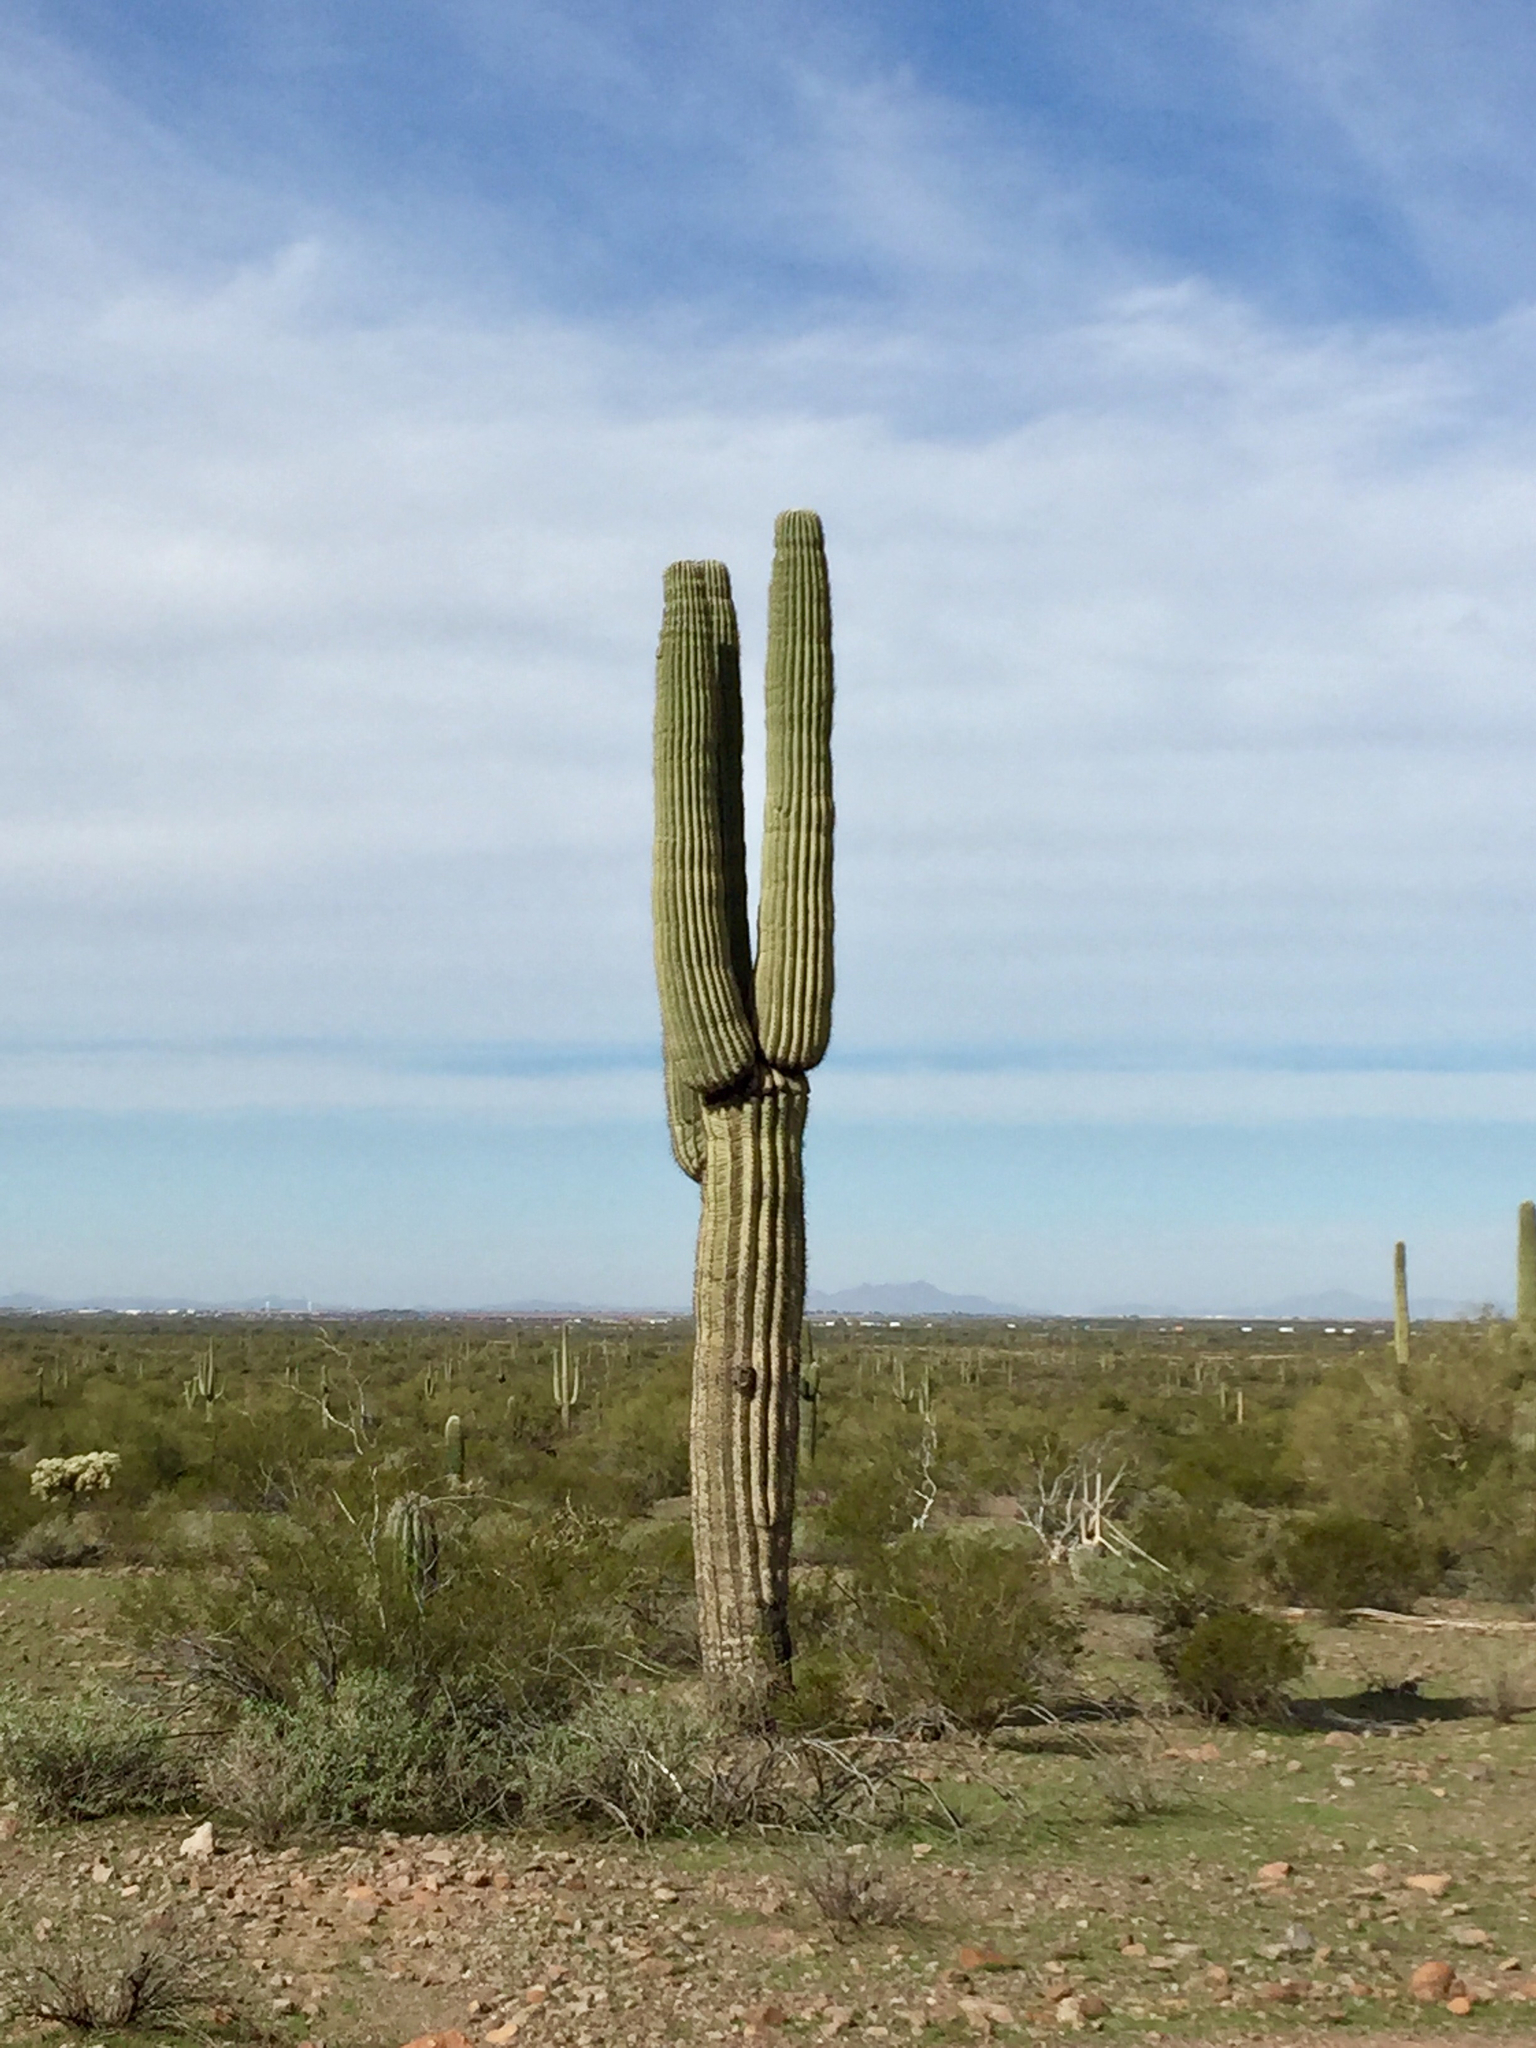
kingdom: Plantae
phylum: Tracheophyta
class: Magnoliopsida
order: Caryophyllales
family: Cactaceae
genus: Carnegiea
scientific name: Carnegiea gigantea
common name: Saguaro
